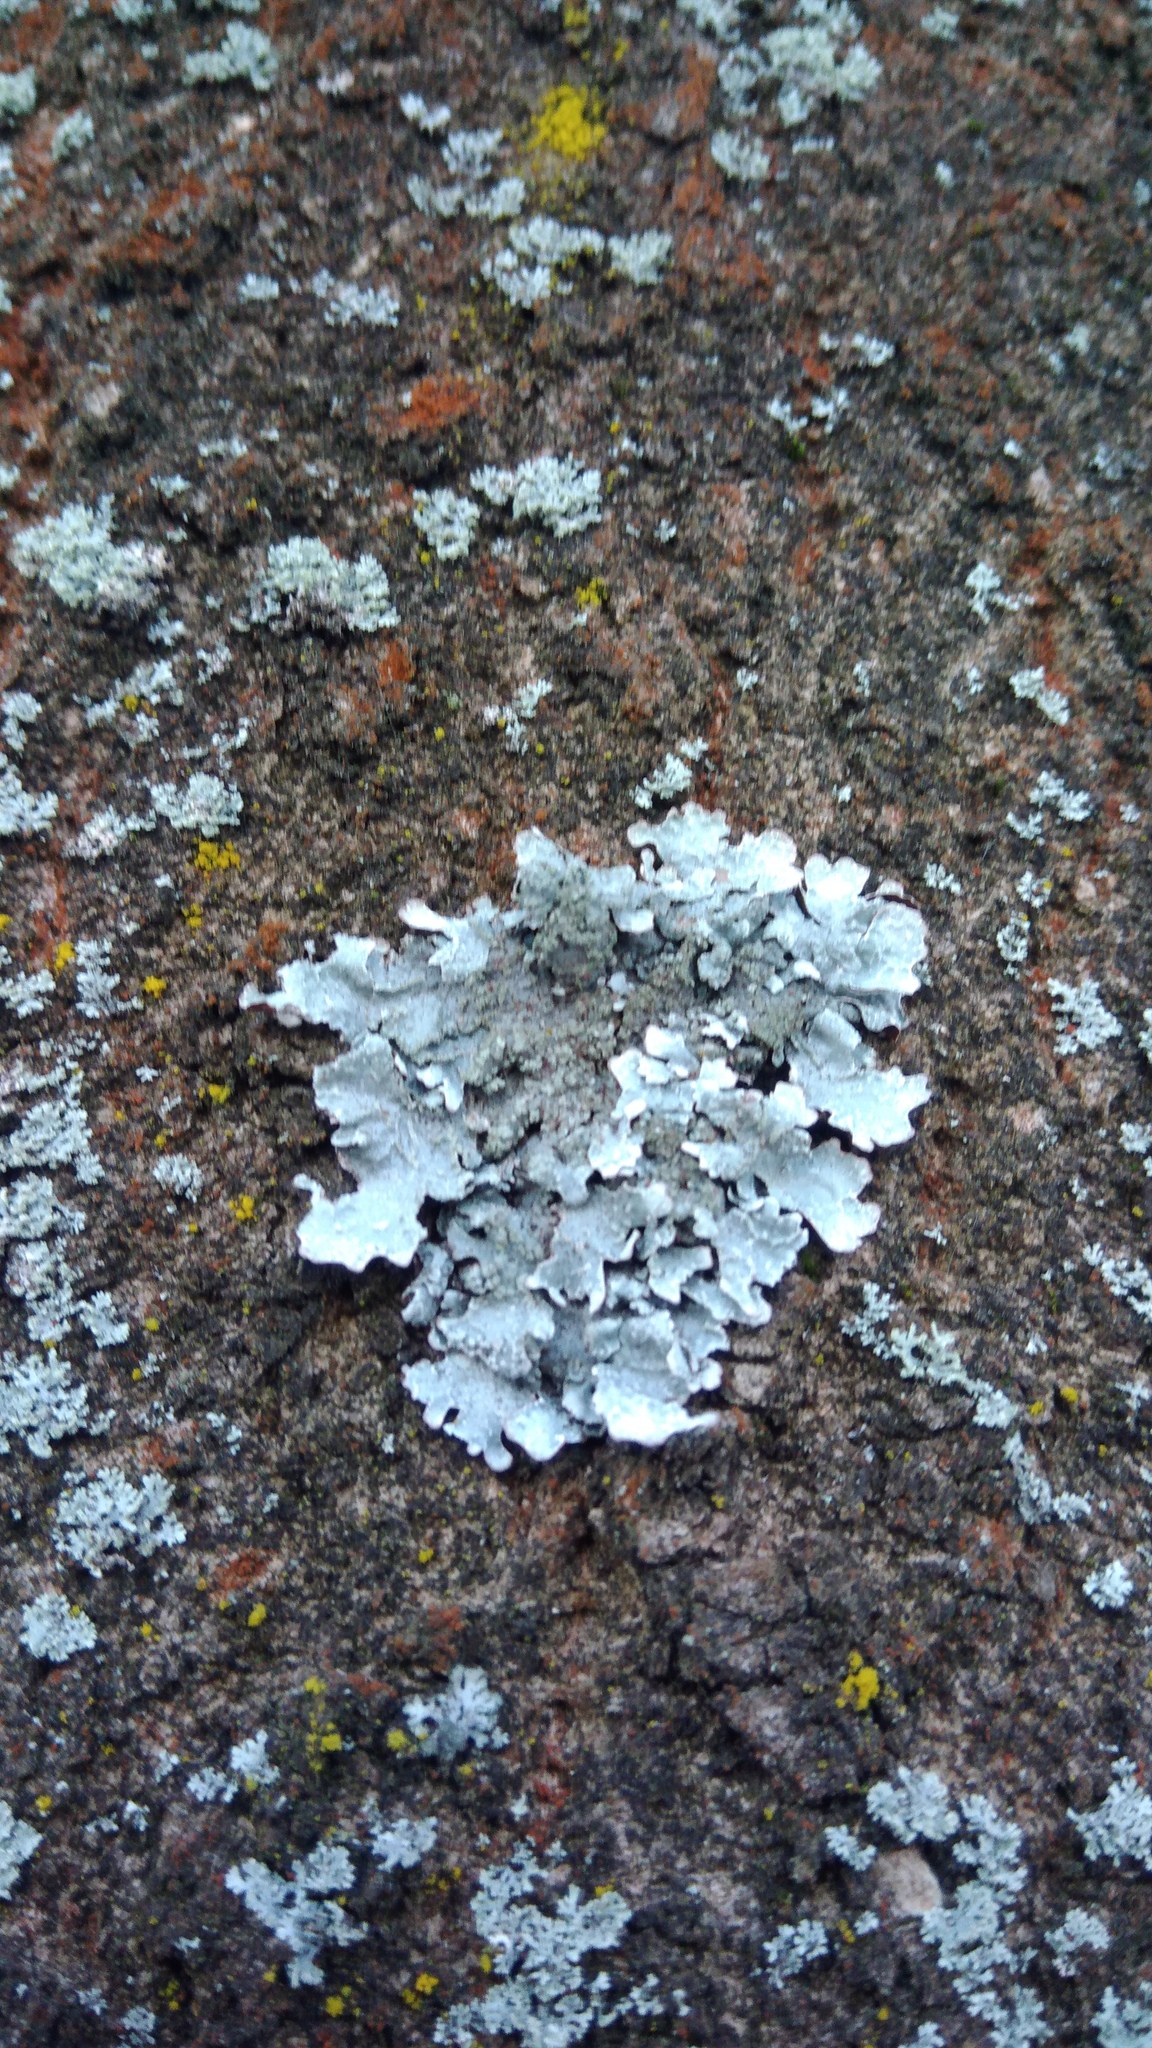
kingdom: Fungi
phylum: Ascomycota
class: Lecanoromycetes
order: Lecanorales
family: Parmeliaceae
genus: Parmelia
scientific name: Parmelia sulcata
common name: Netted shield lichen
